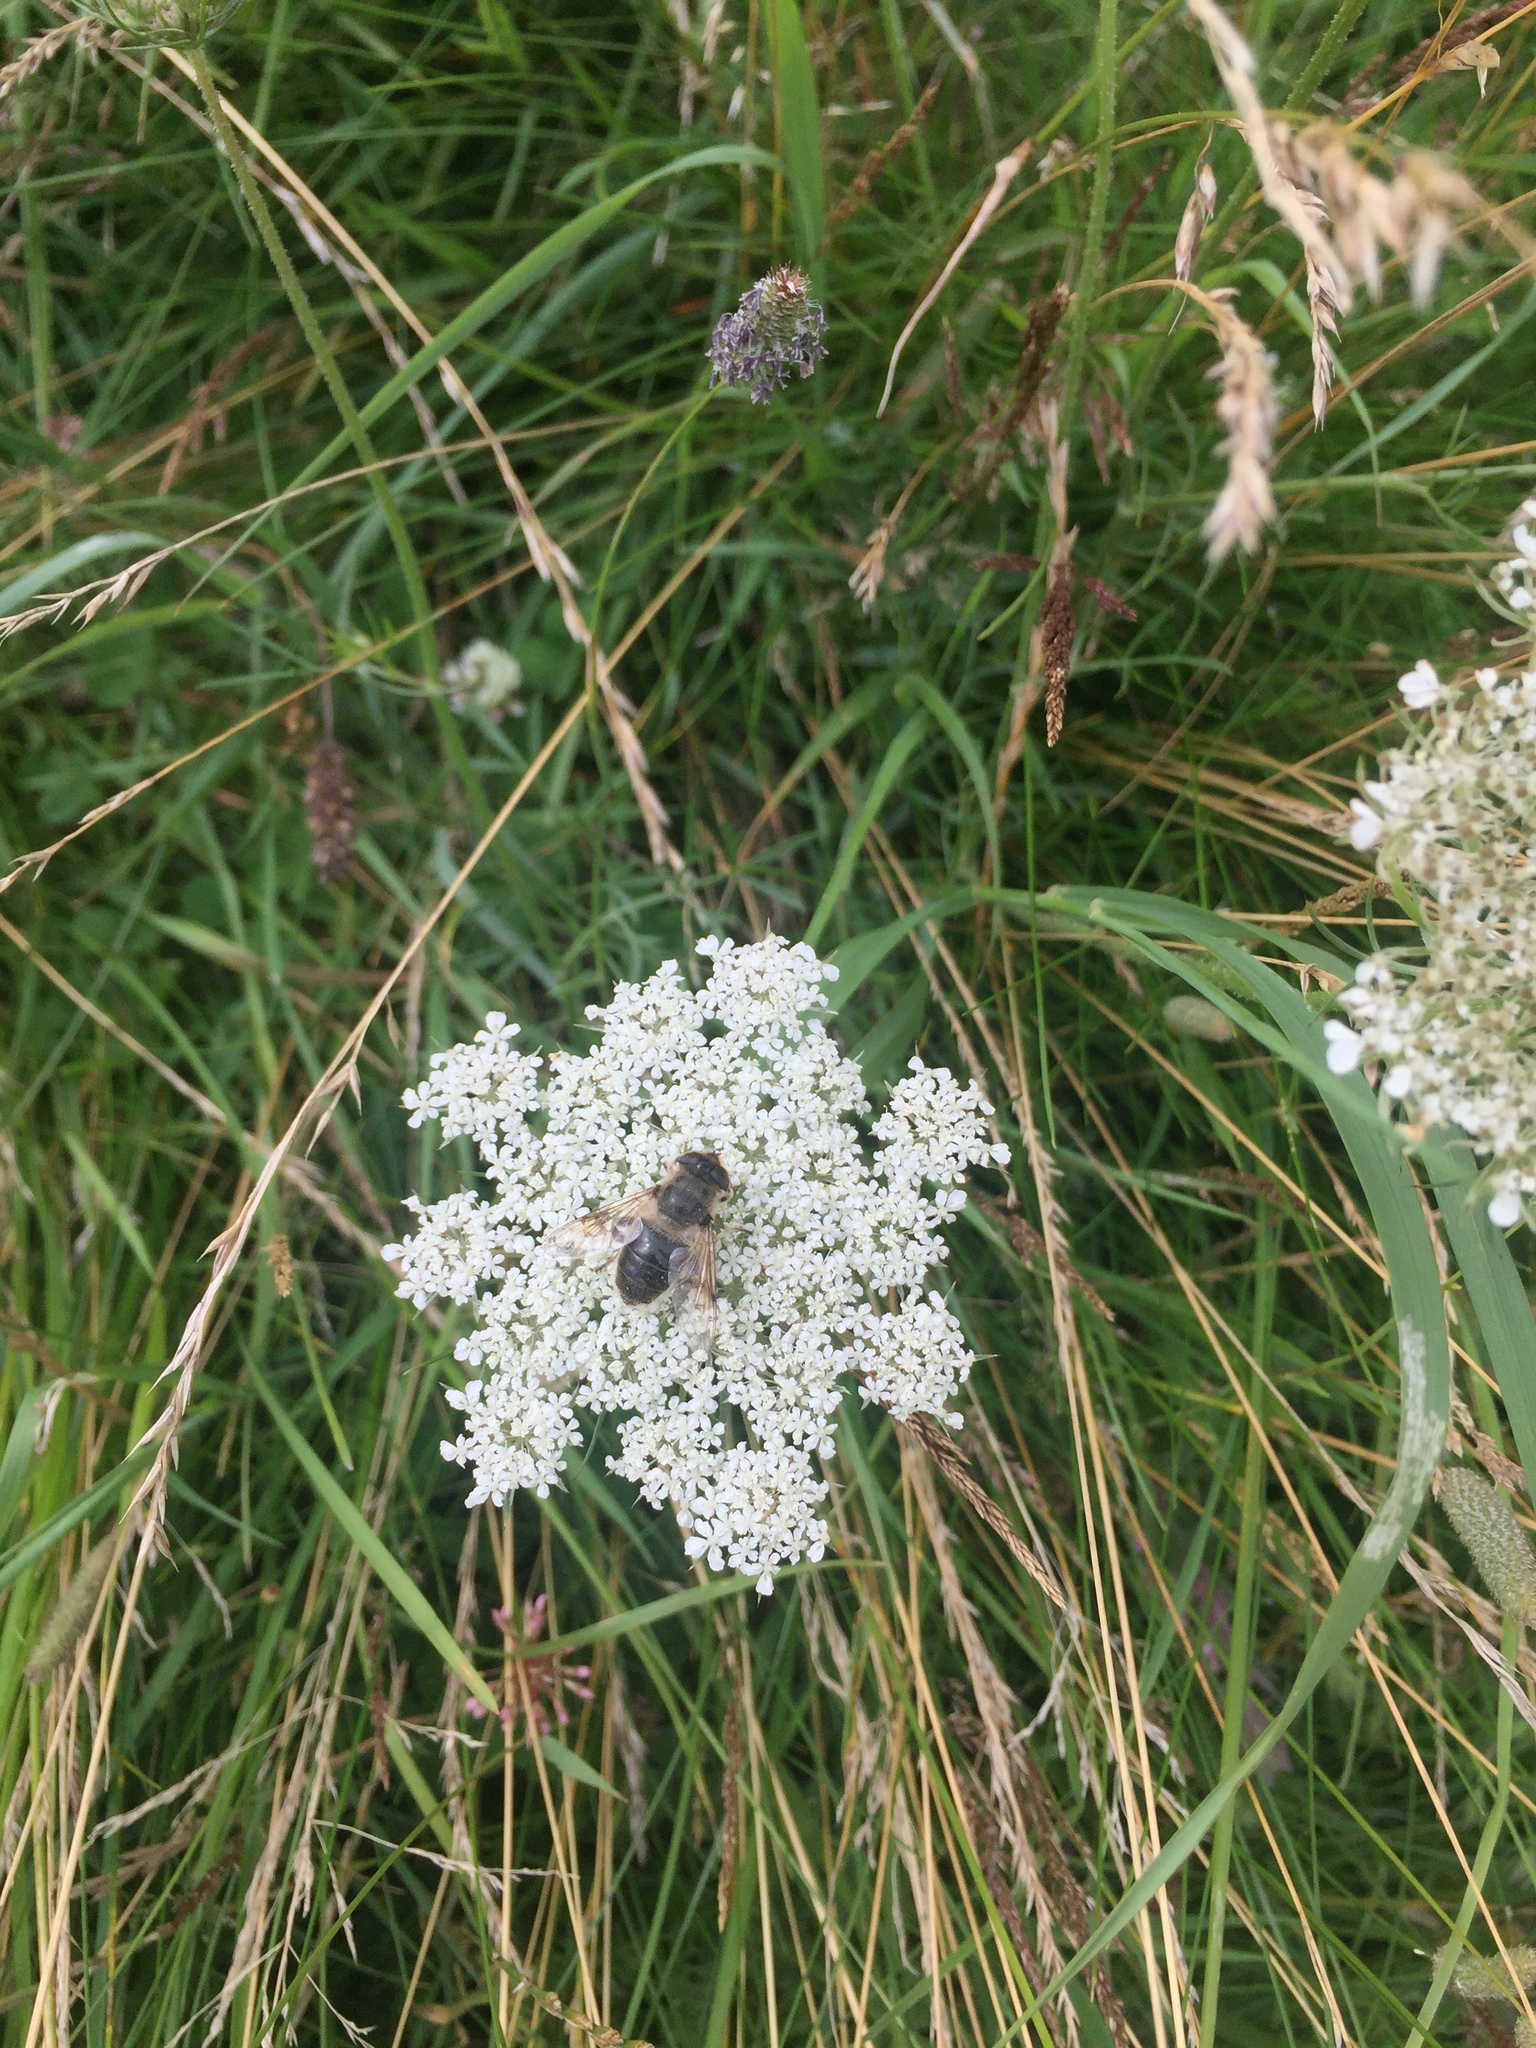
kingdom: Animalia
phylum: Arthropoda
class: Insecta
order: Diptera
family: Syrphidae
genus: Eristalis
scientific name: Eristalis tenax
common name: Drone fly
